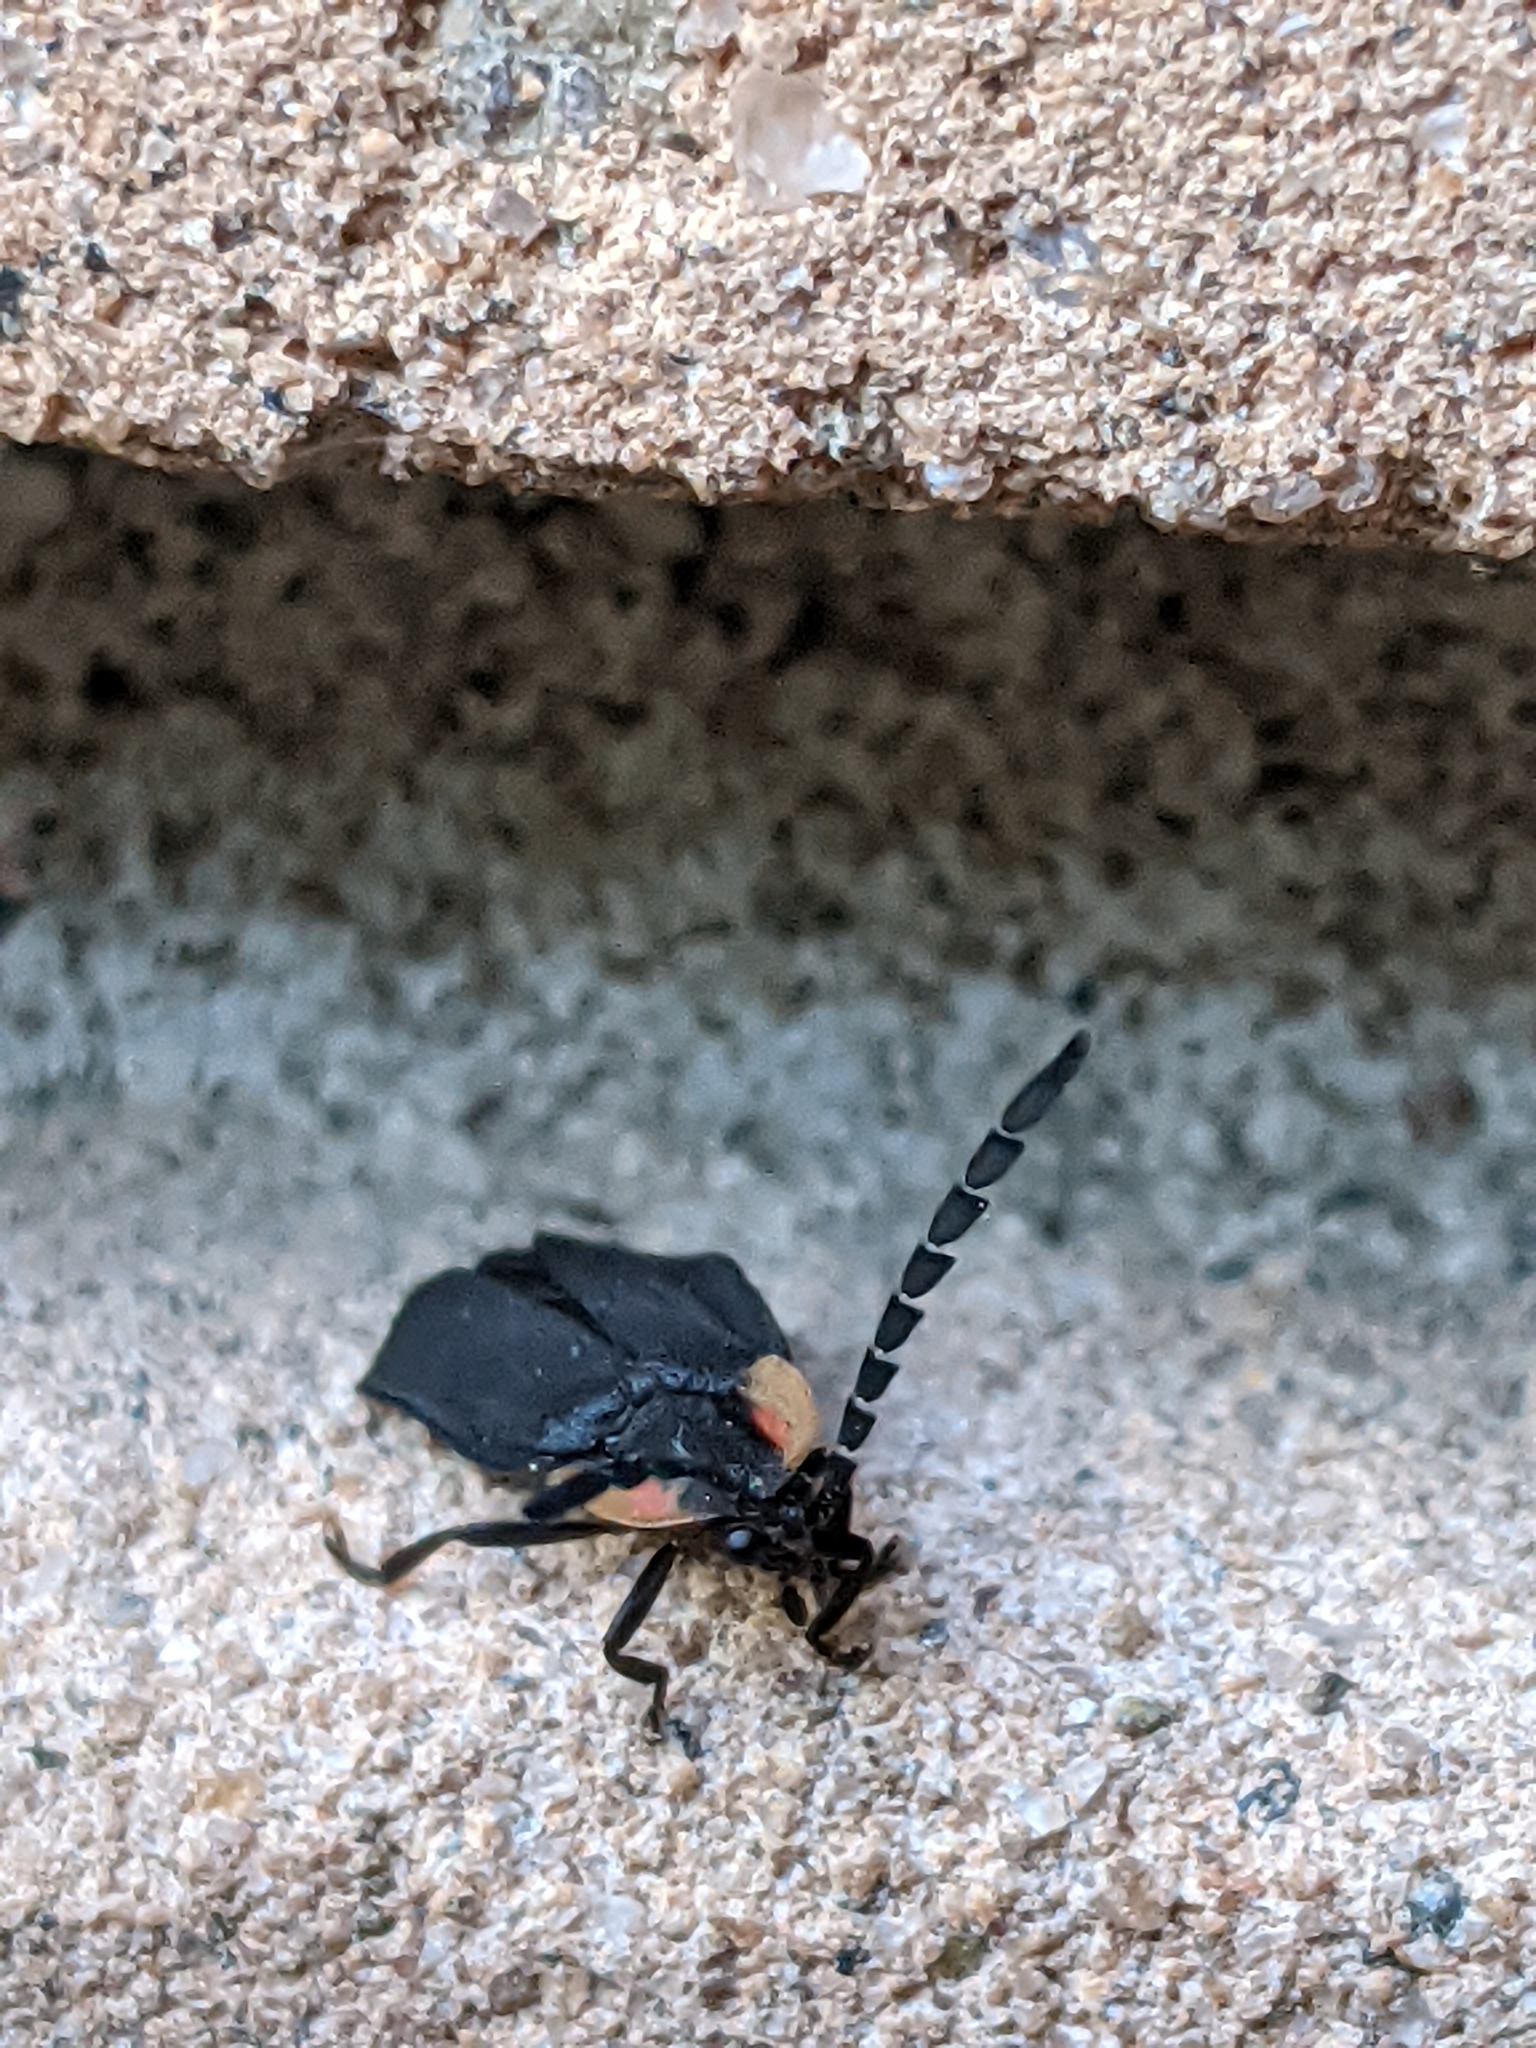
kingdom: Animalia
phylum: Arthropoda
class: Insecta
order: Coleoptera
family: Lampyridae
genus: Lucidota
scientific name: Lucidota atra
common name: Black firefly
